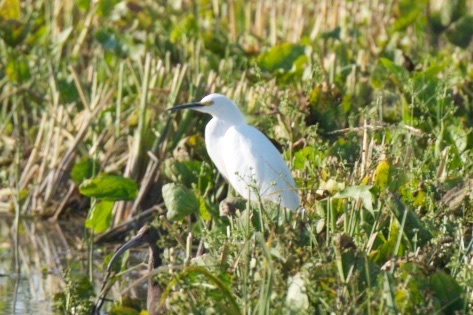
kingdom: Animalia
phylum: Chordata
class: Aves
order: Pelecaniformes
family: Ardeidae
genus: Egretta
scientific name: Egretta thula
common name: Snowy egret
